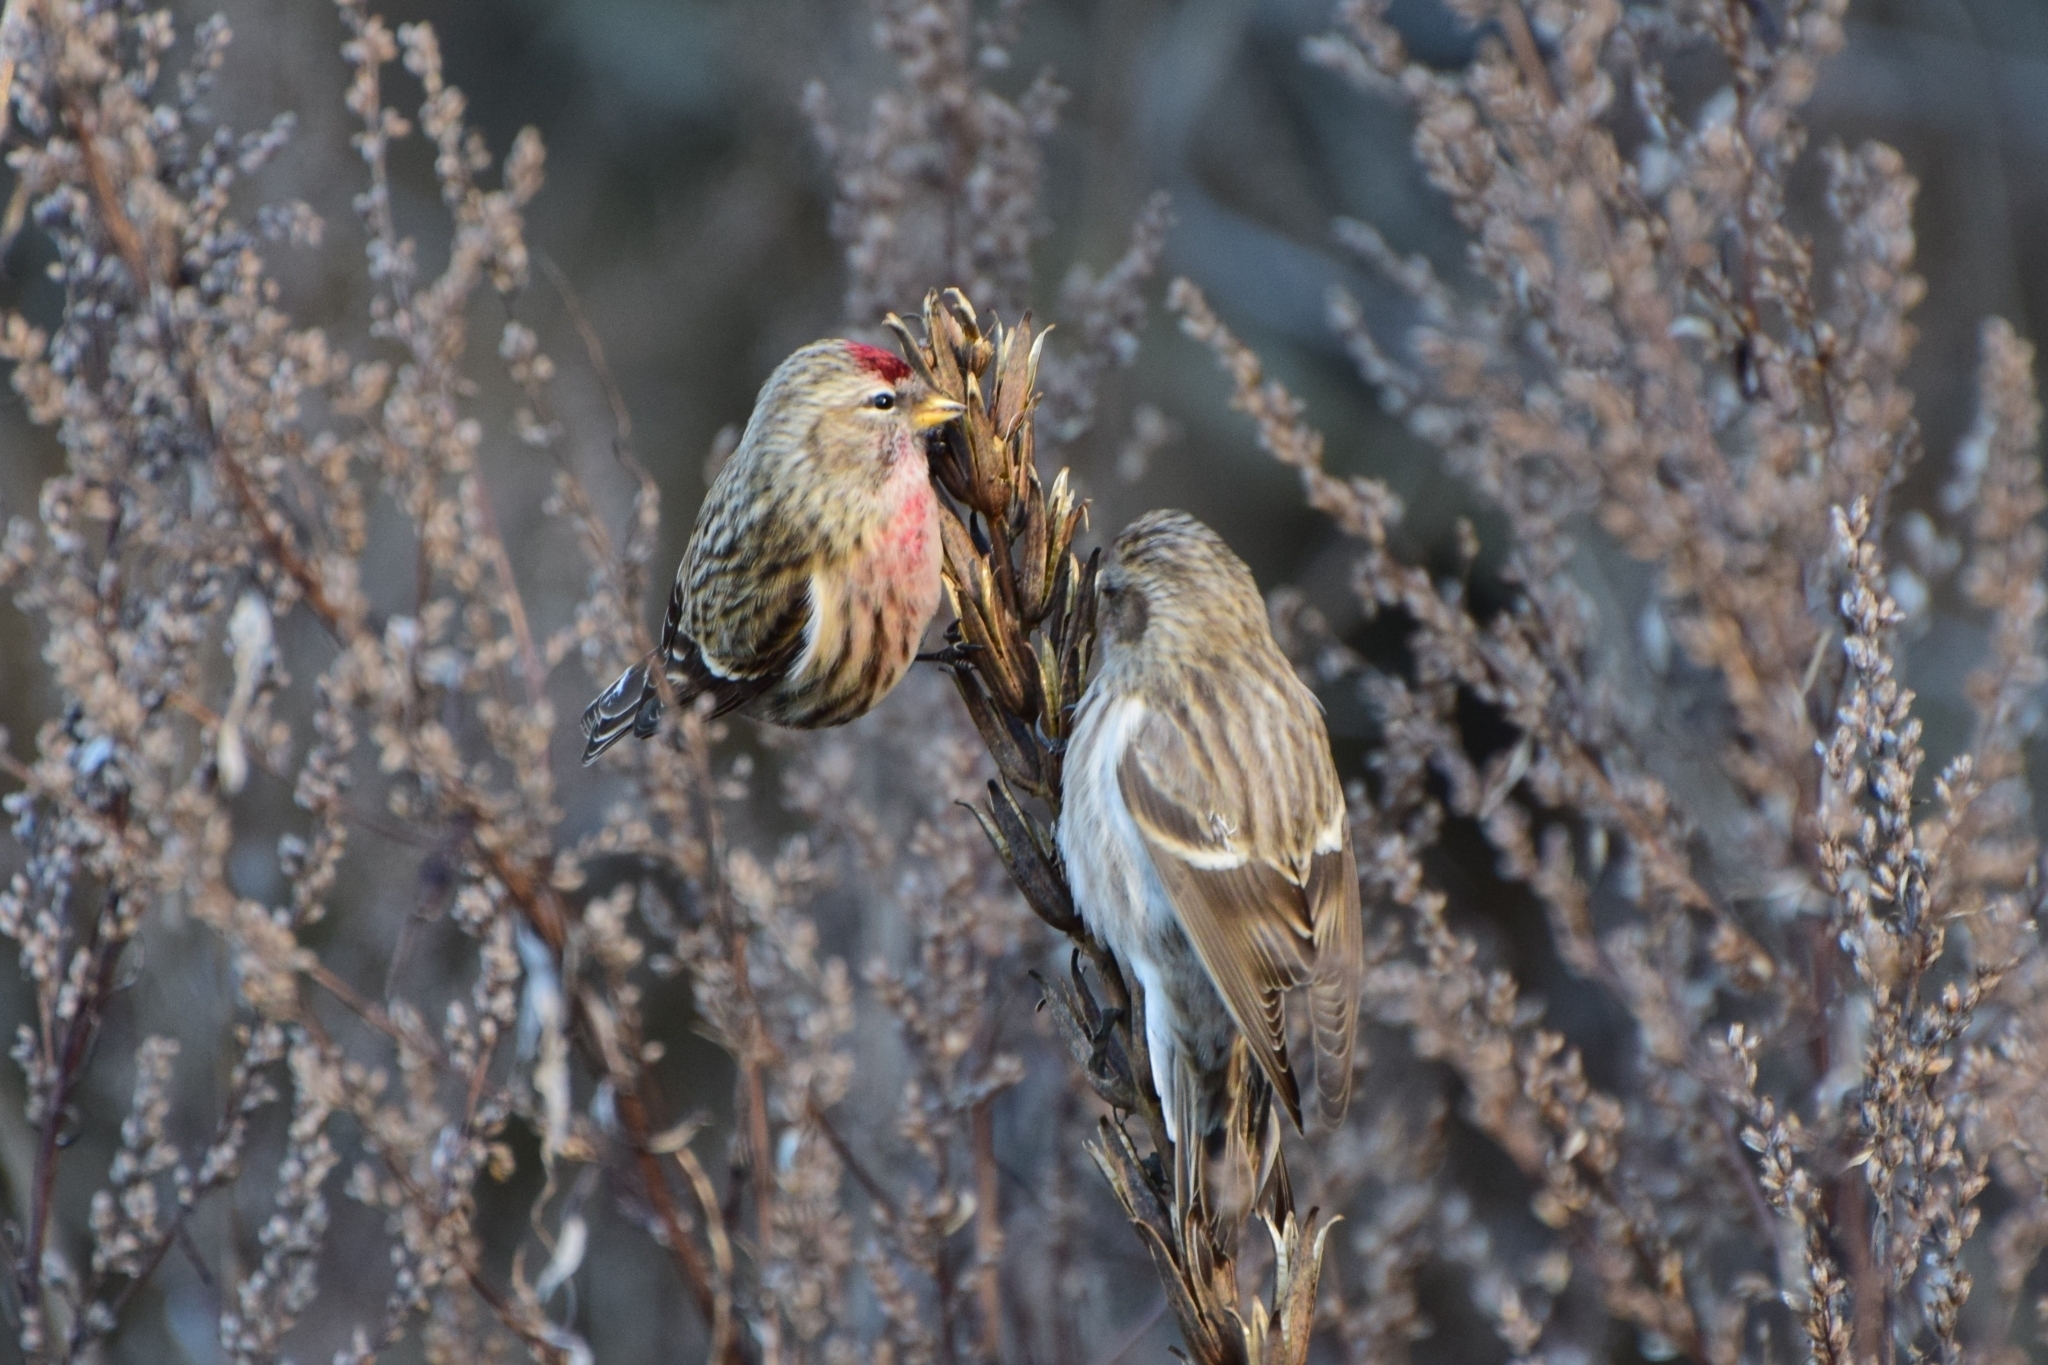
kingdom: Animalia
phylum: Chordata
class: Aves
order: Passeriformes
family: Fringillidae
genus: Acanthis
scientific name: Acanthis flammea
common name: Common redpoll
